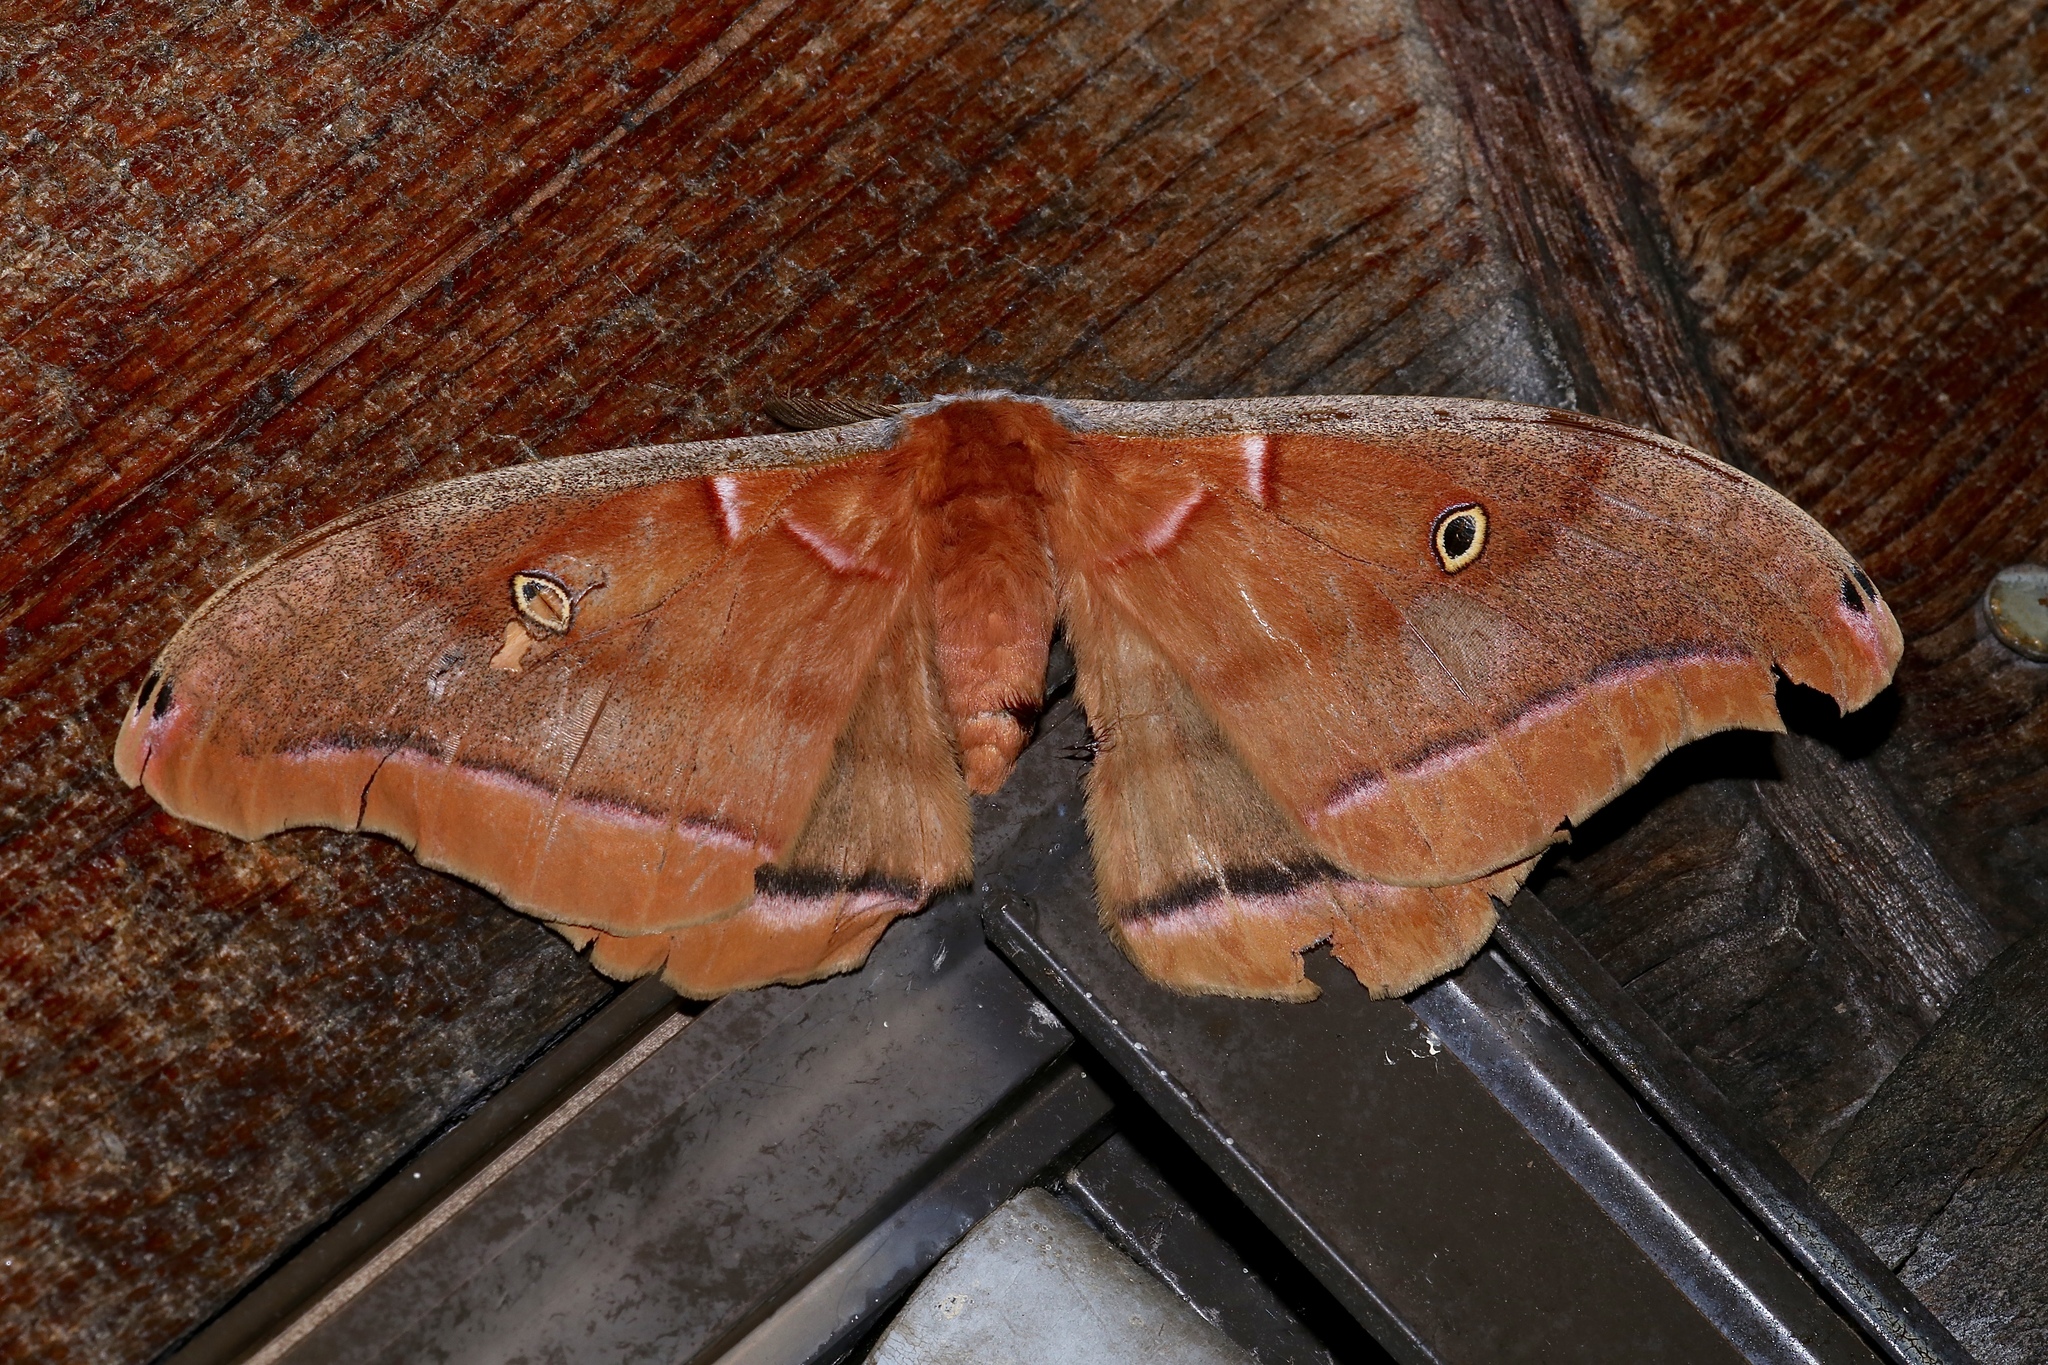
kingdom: Animalia
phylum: Arthropoda
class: Insecta
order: Lepidoptera
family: Saturniidae
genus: Antheraea
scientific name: Antheraea polyphemus
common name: Polyphemus moth
